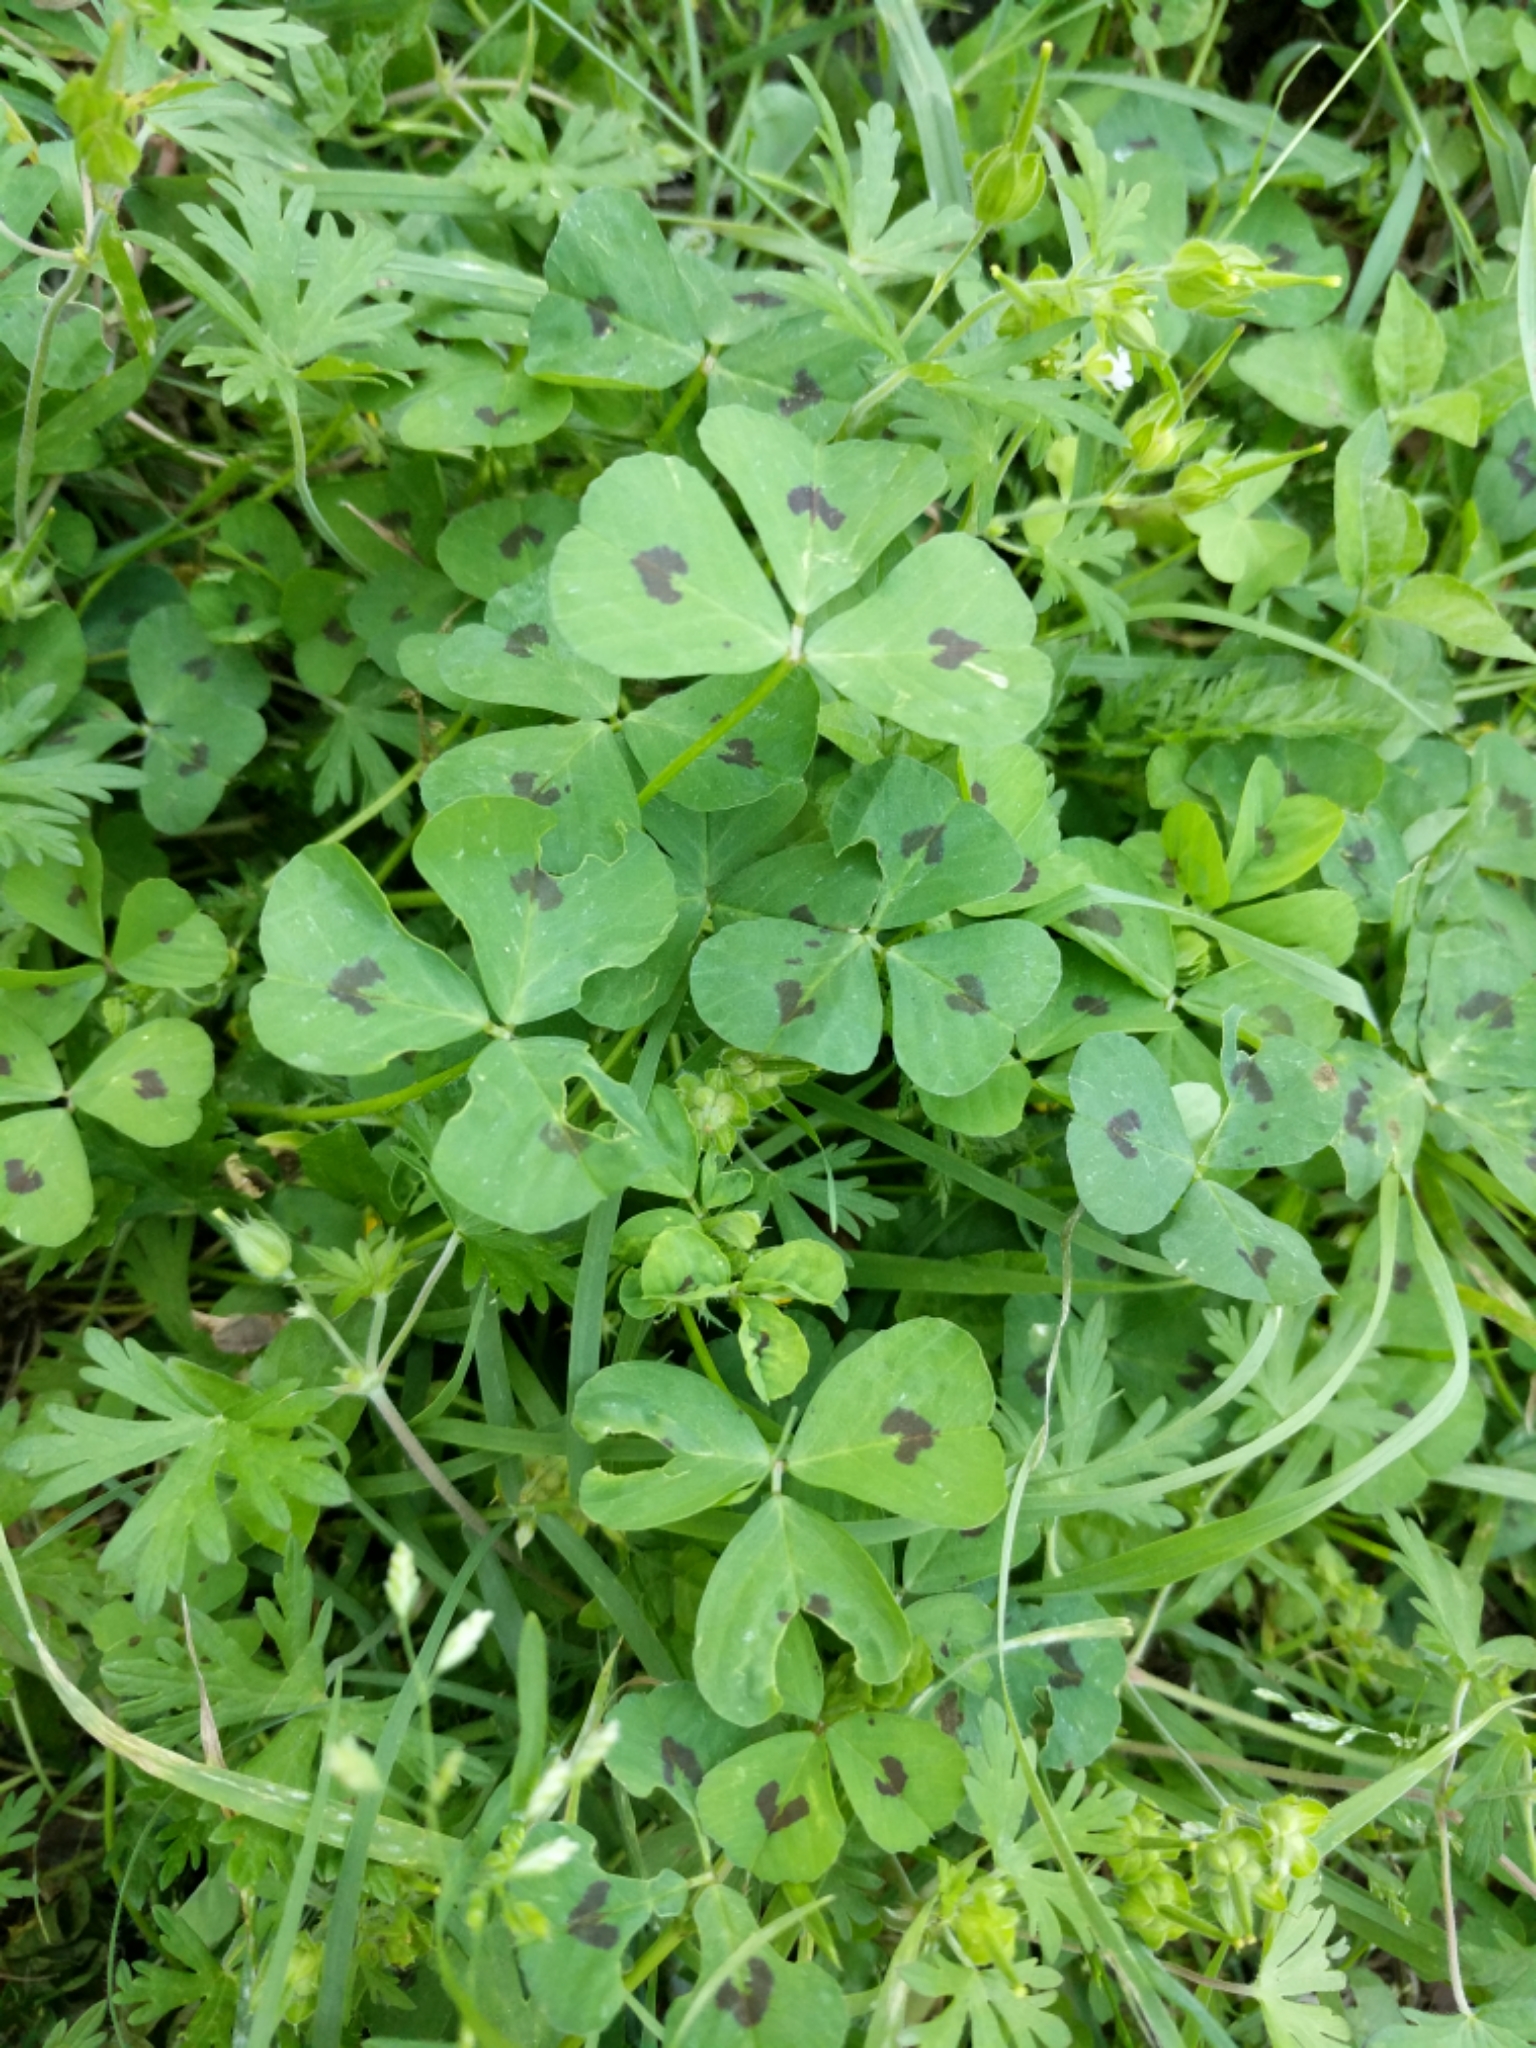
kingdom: Plantae
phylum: Tracheophyta
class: Magnoliopsida
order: Fabales
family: Fabaceae
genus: Medicago
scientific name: Medicago arabica
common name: Spotted medick
